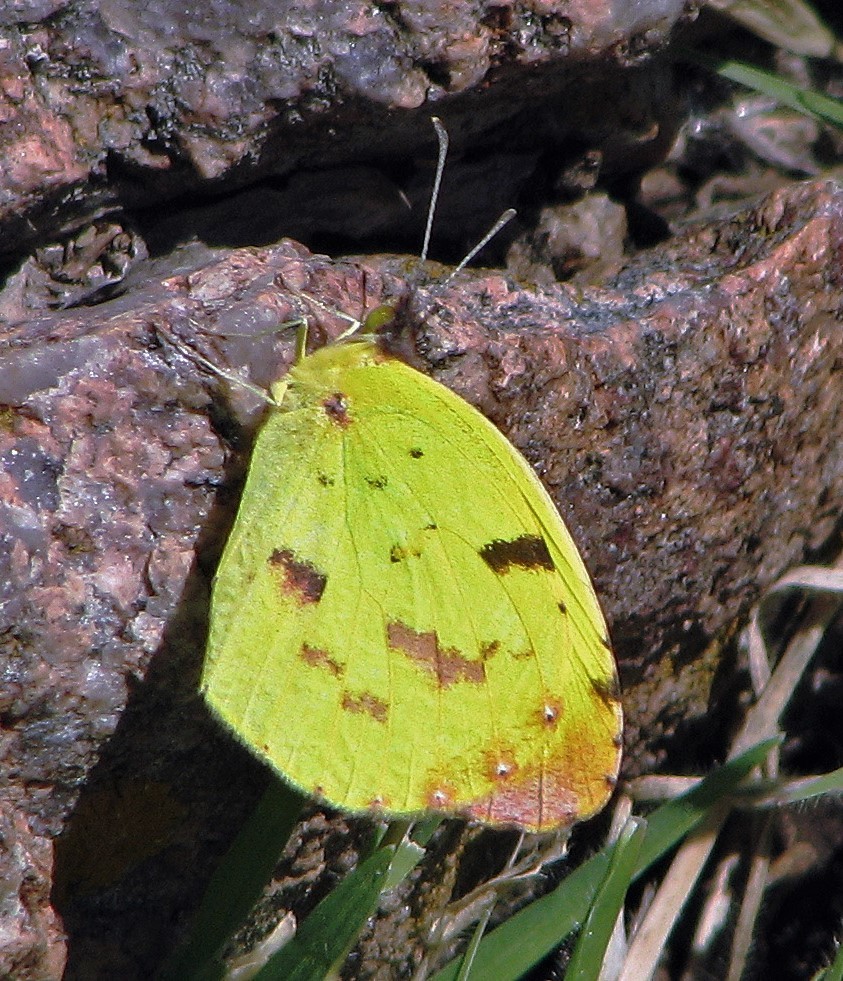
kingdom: Animalia
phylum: Arthropoda
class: Insecta
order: Lepidoptera
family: Pieridae
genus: Teriocolias
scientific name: Teriocolias
